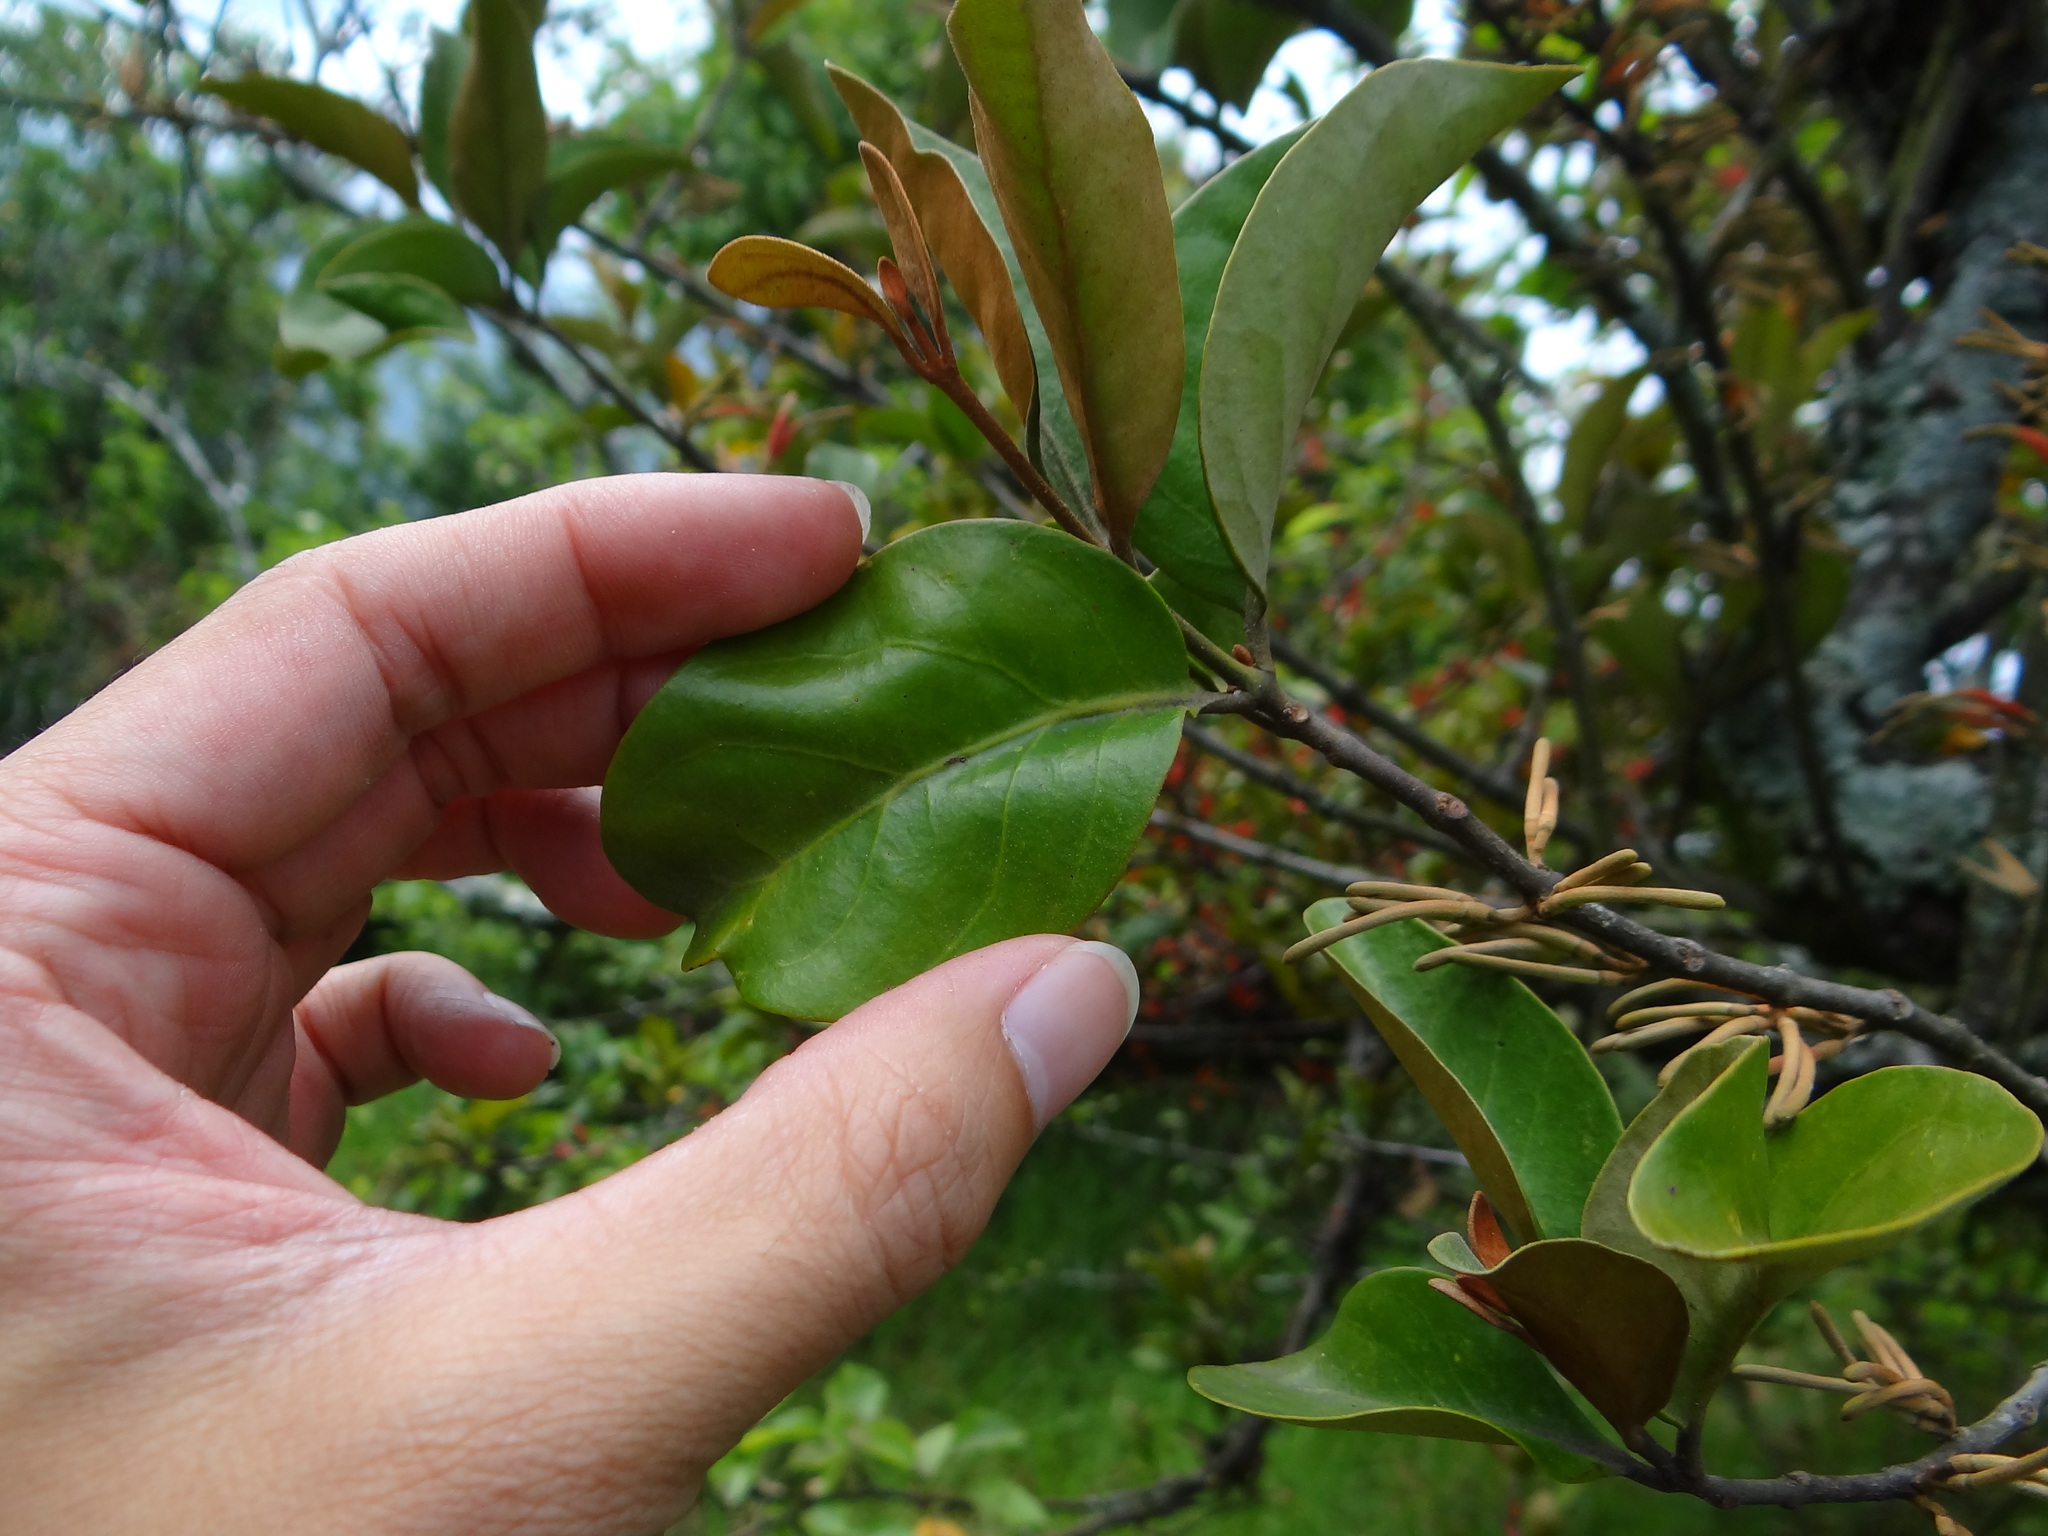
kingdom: Plantae
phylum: Tracheophyta
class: Magnoliopsida
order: Santalales
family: Loranthaceae
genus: Taxillus
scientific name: Taxillus nigrans
